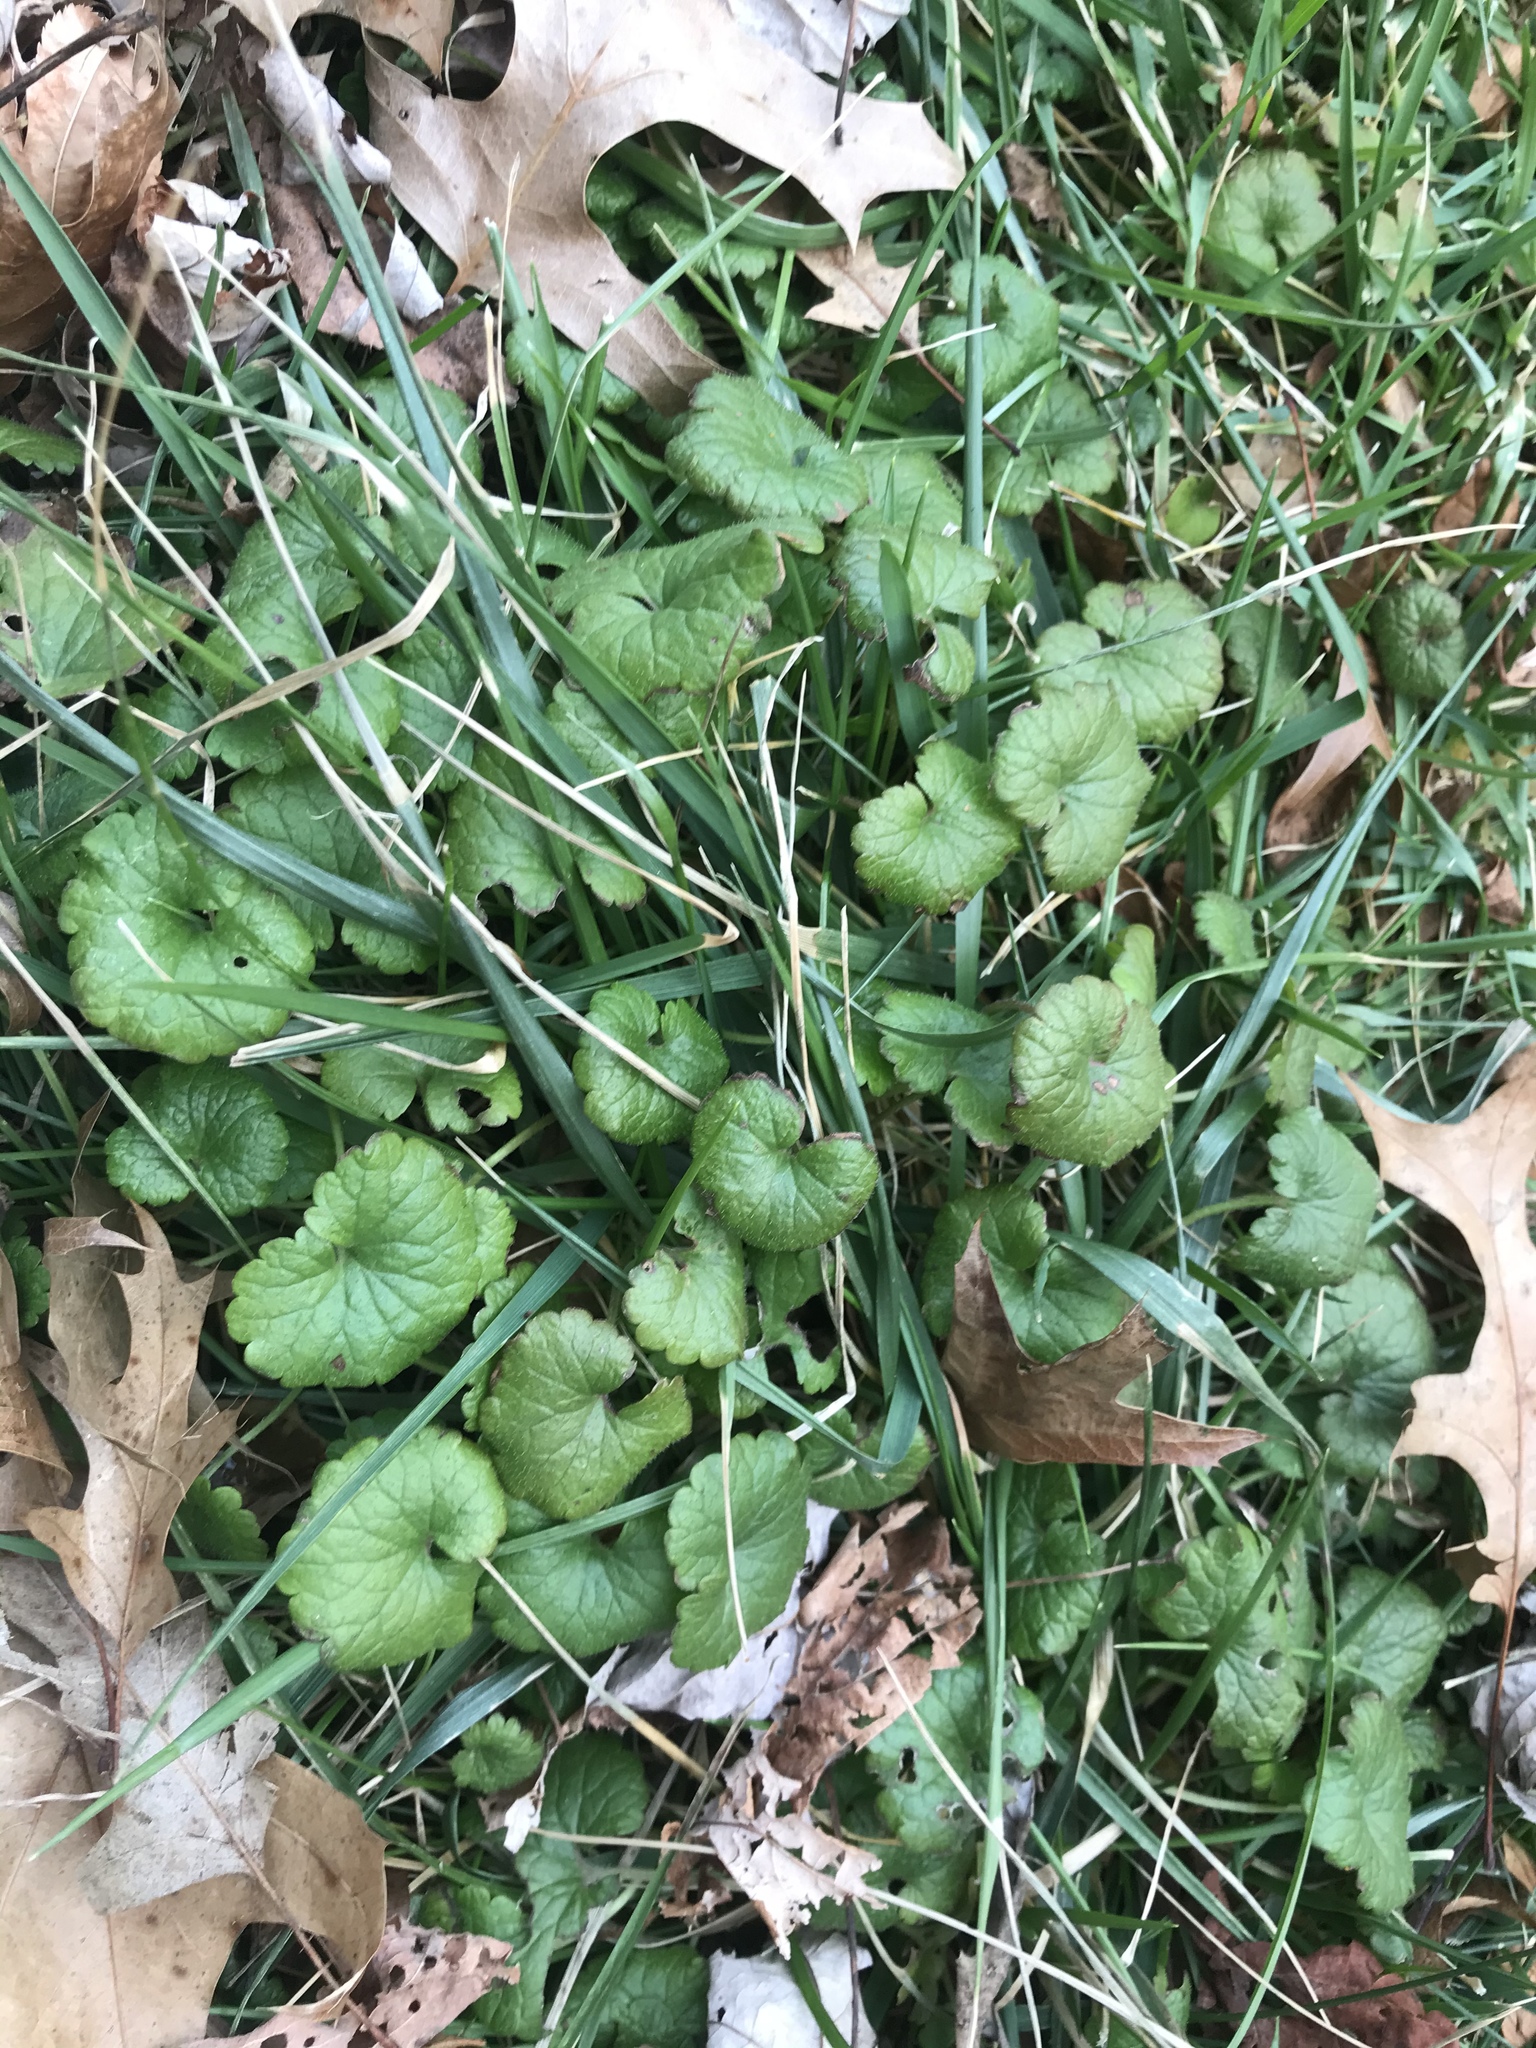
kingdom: Plantae
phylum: Tracheophyta
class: Magnoliopsida
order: Lamiales
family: Lamiaceae
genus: Glechoma
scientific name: Glechoma hederacea
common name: Ground ivy
